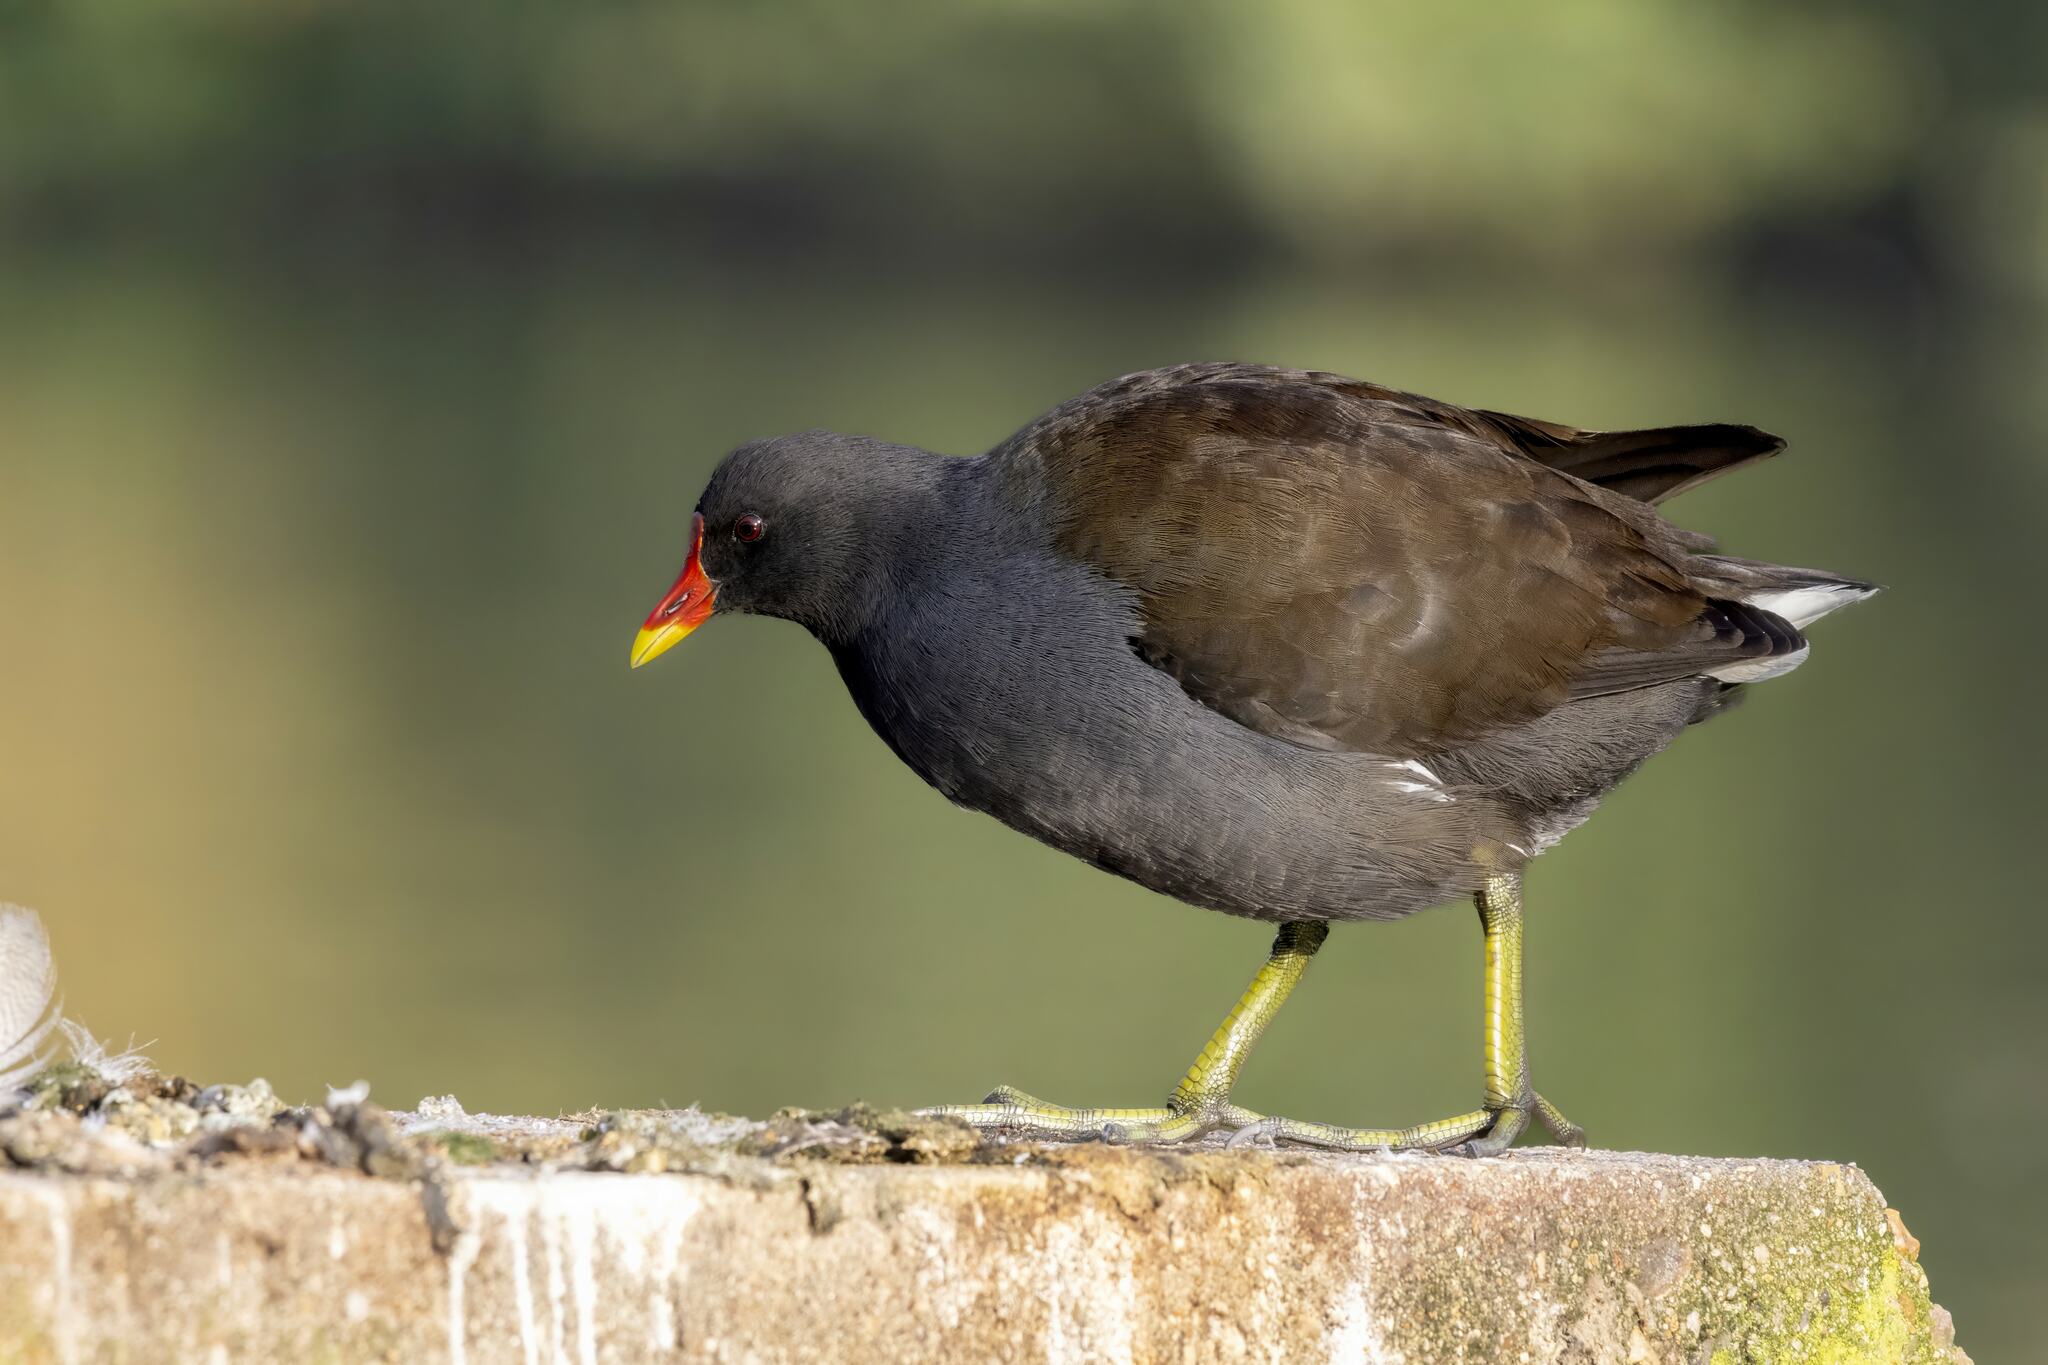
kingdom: Animalia
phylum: Chordata
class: Aves
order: Gruiformes
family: Rallidae
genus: Gallinula
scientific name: Gallinula chloropus
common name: Common moorhen
